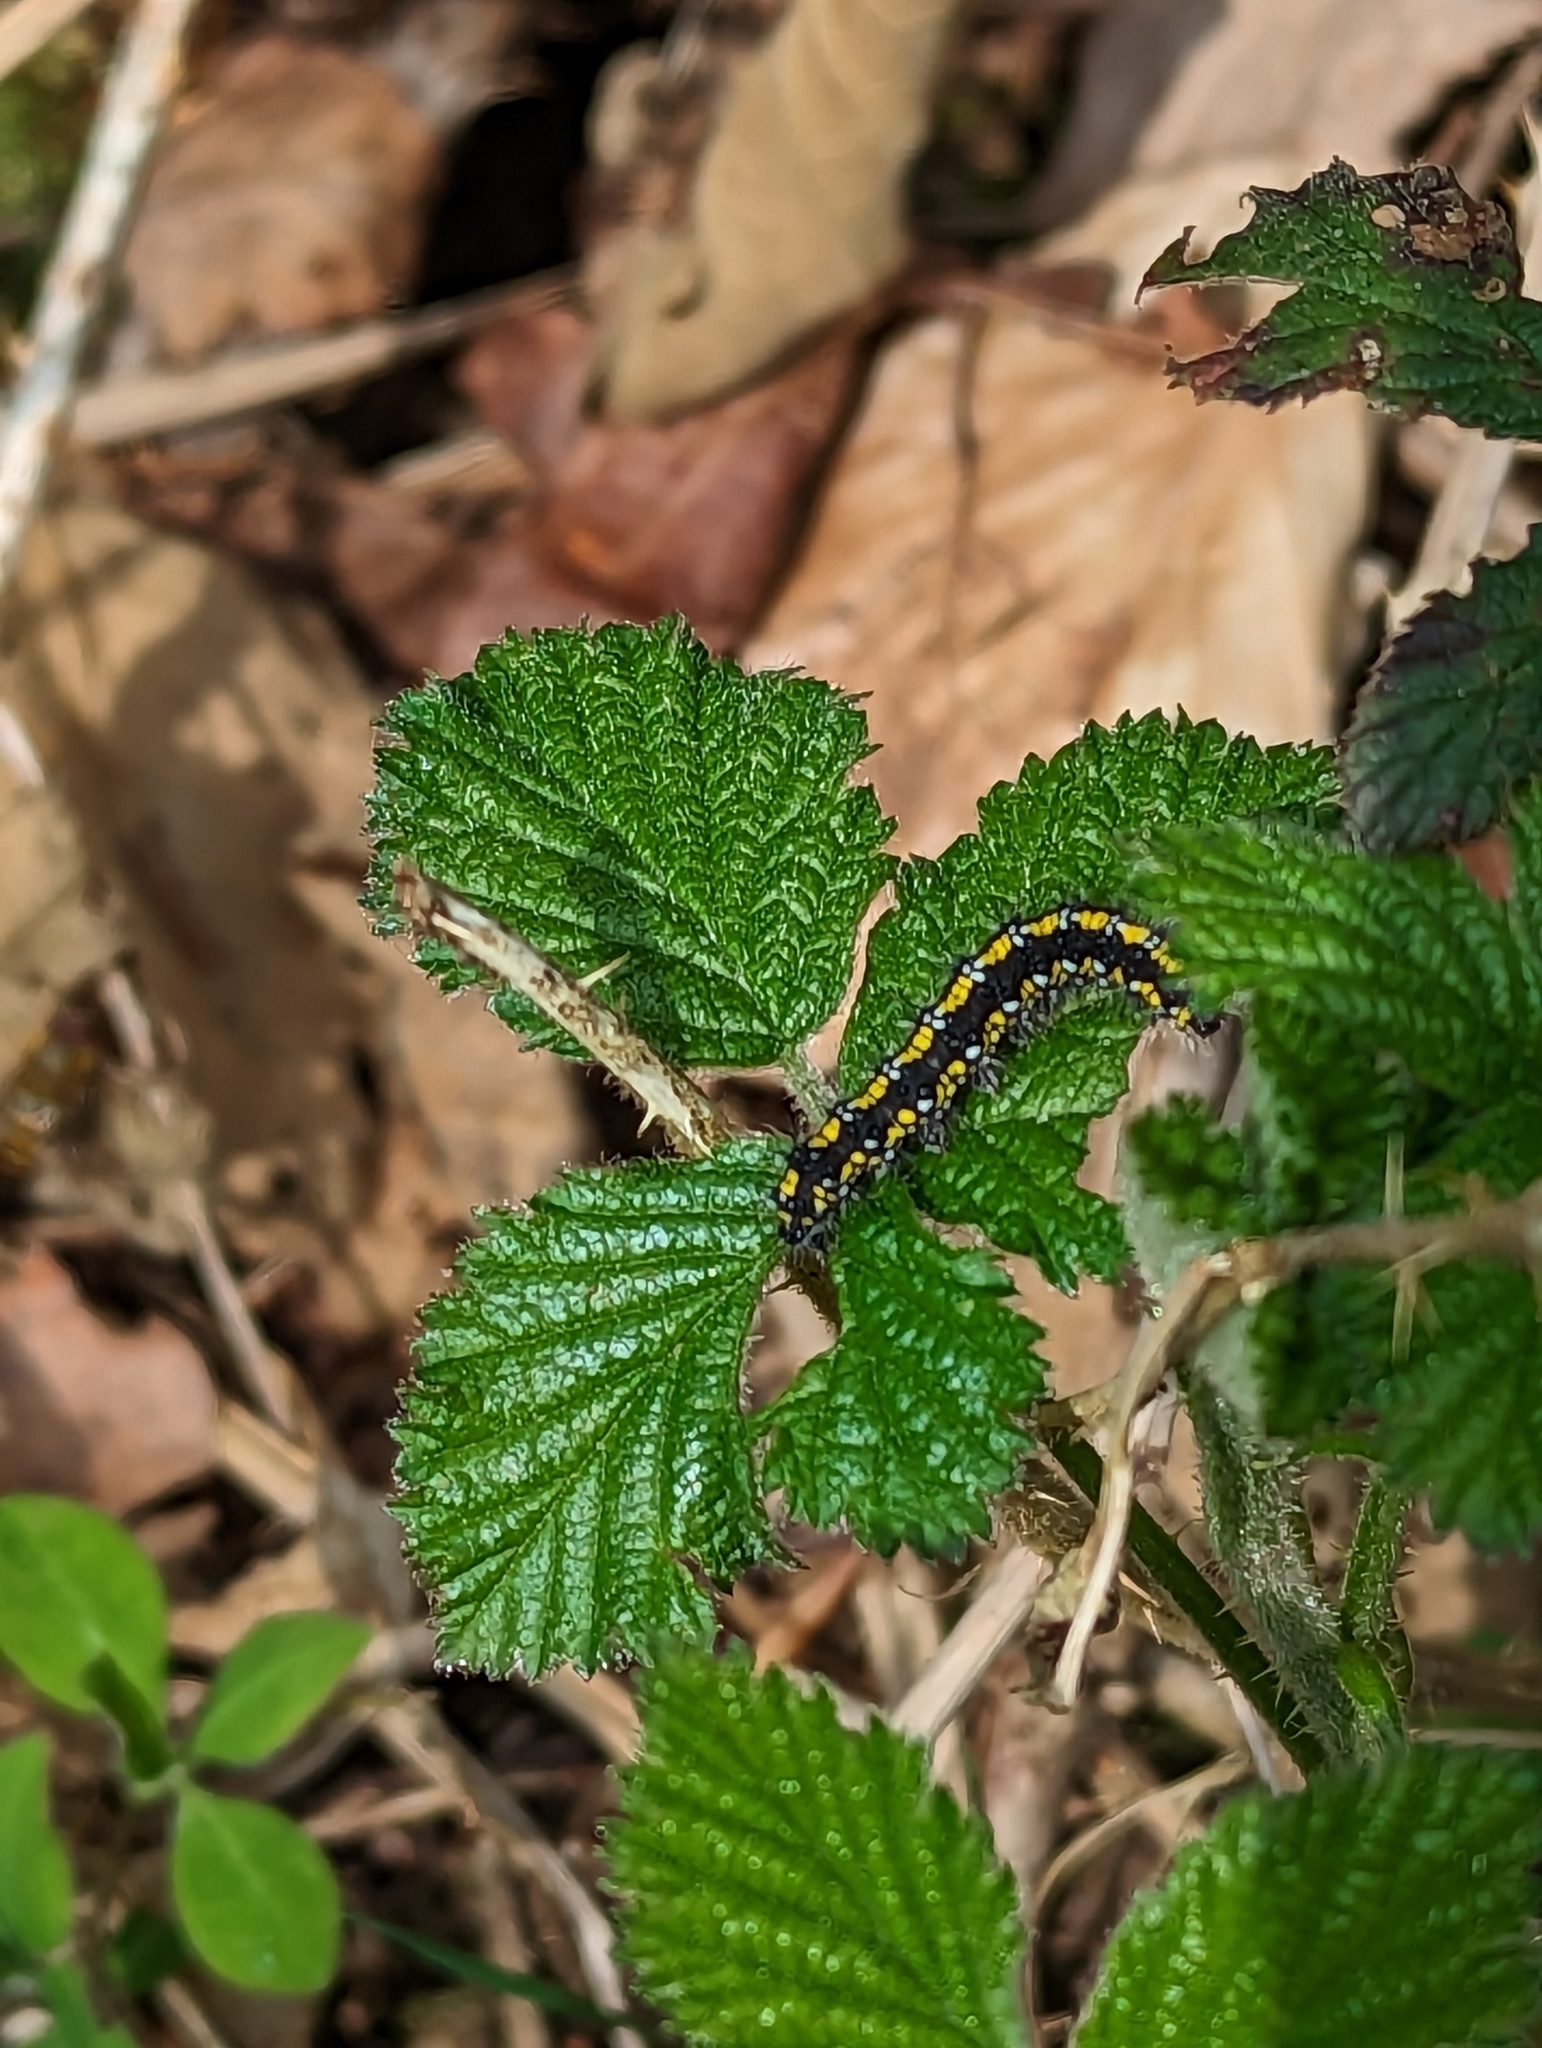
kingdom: Animalia
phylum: Arthropoda
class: Insecta
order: Lepidoptera
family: Erebidae
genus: Callimorpha
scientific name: Callimorpha dominula
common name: Scarlet tiger
